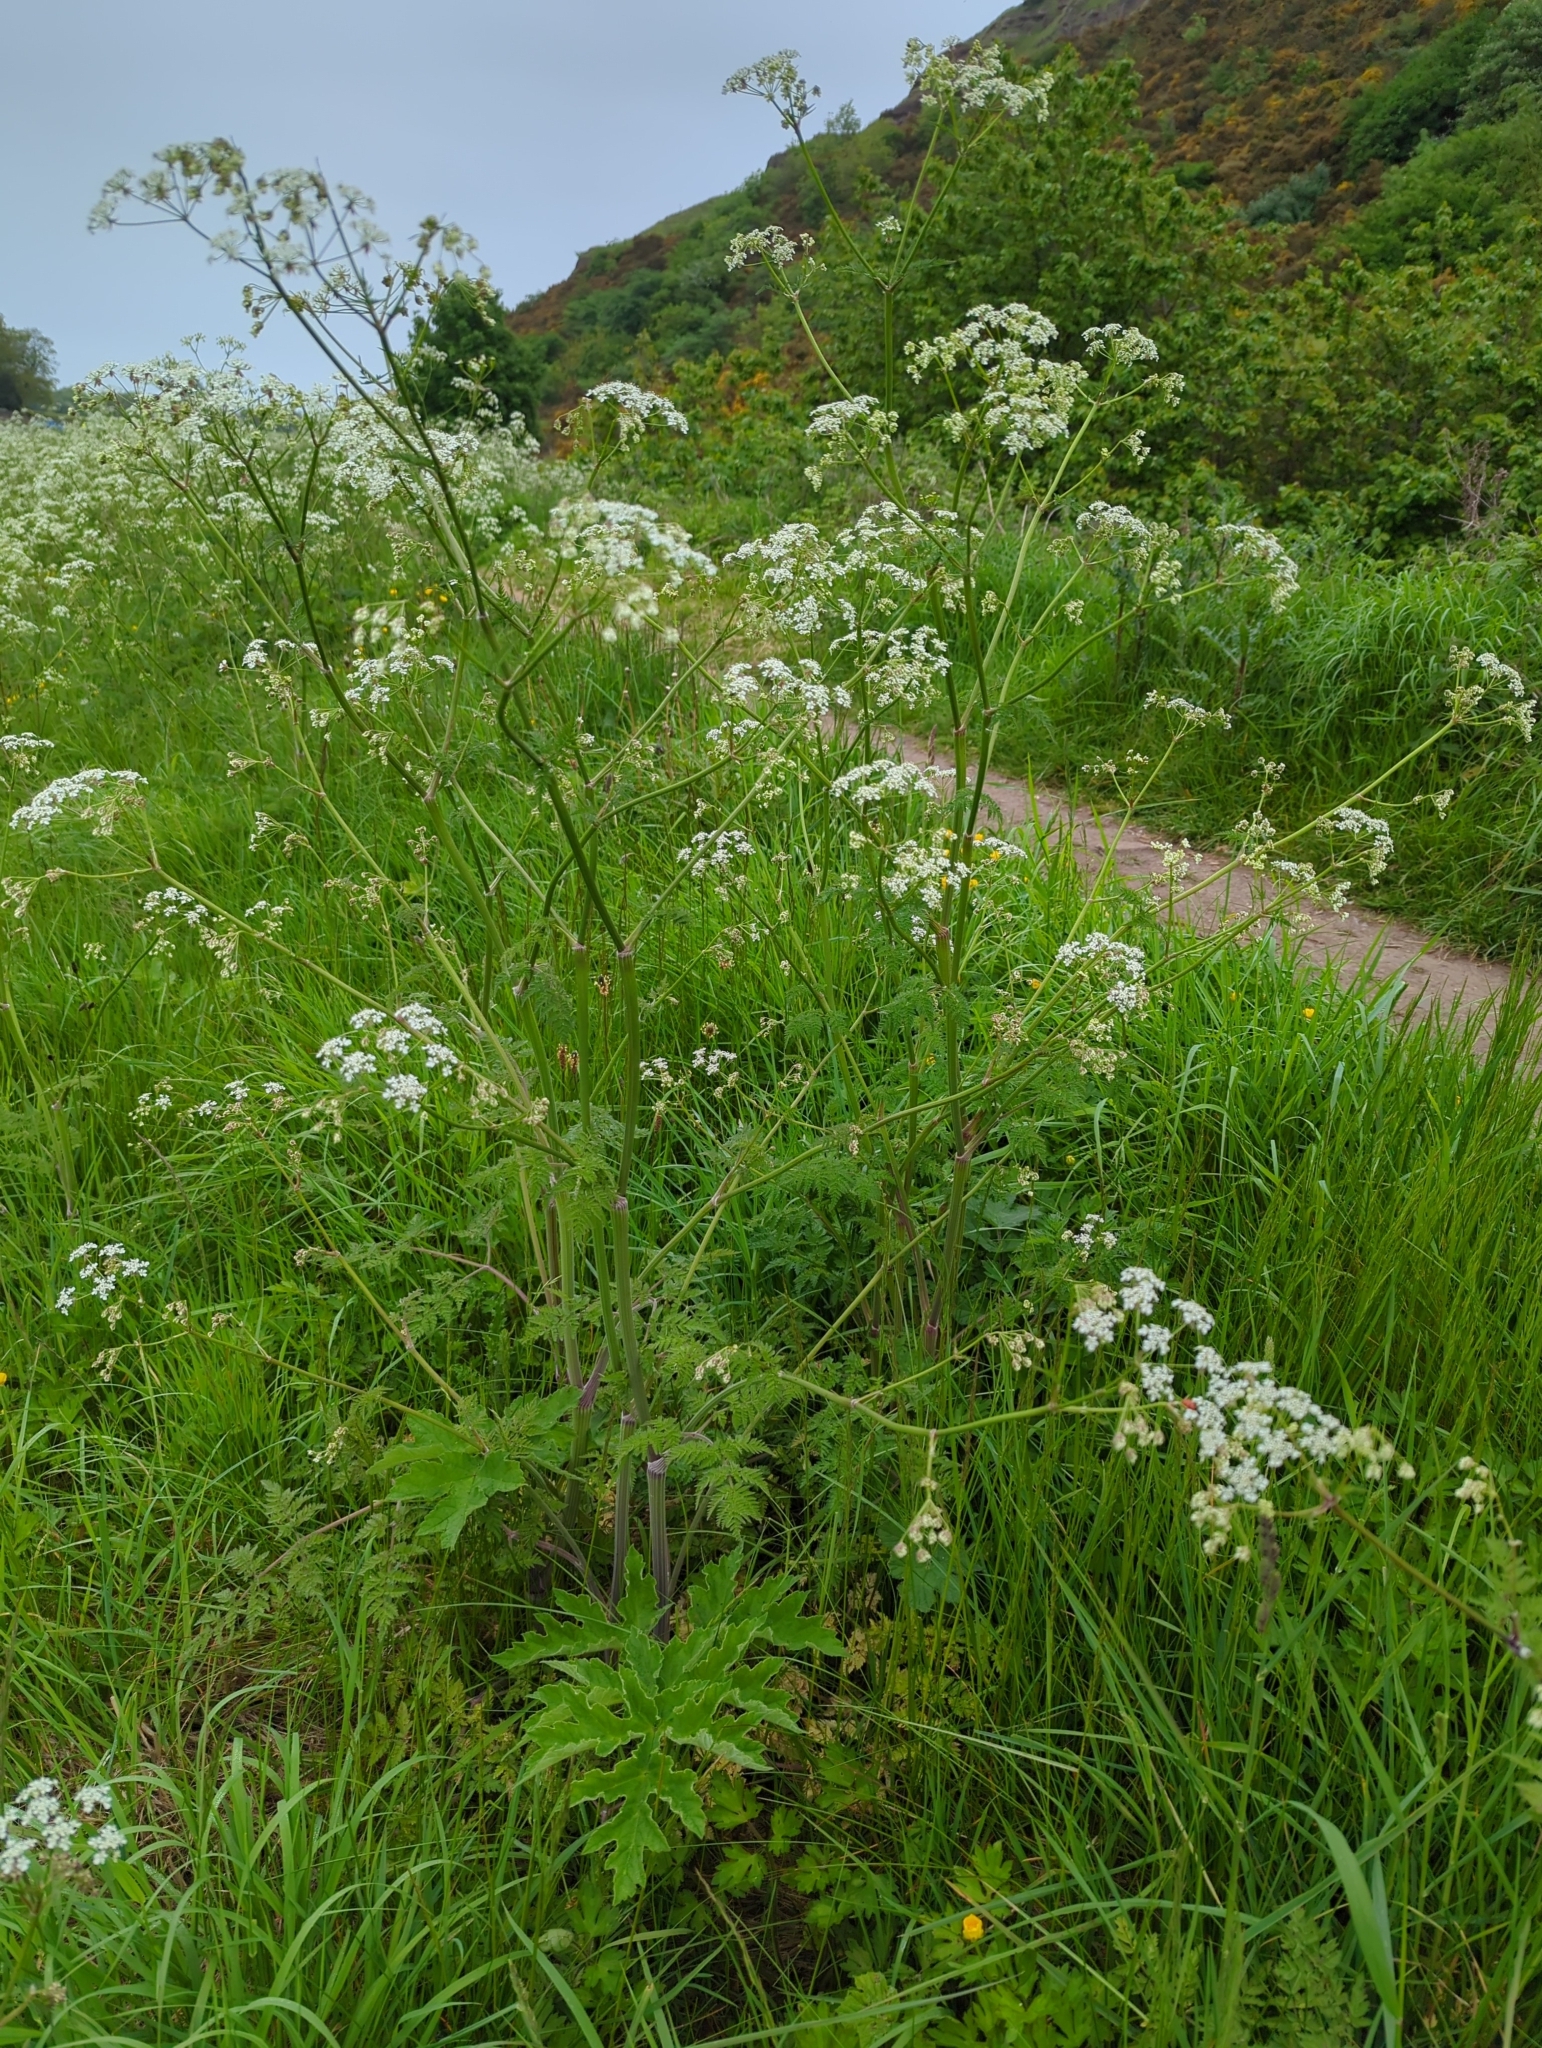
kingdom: Plantae
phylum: Tracheophyta
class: Magnoliopsida
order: Apiales
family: Apiaceae
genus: Anthriscus
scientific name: Anthriscus sylvestris
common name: Cow parsley
